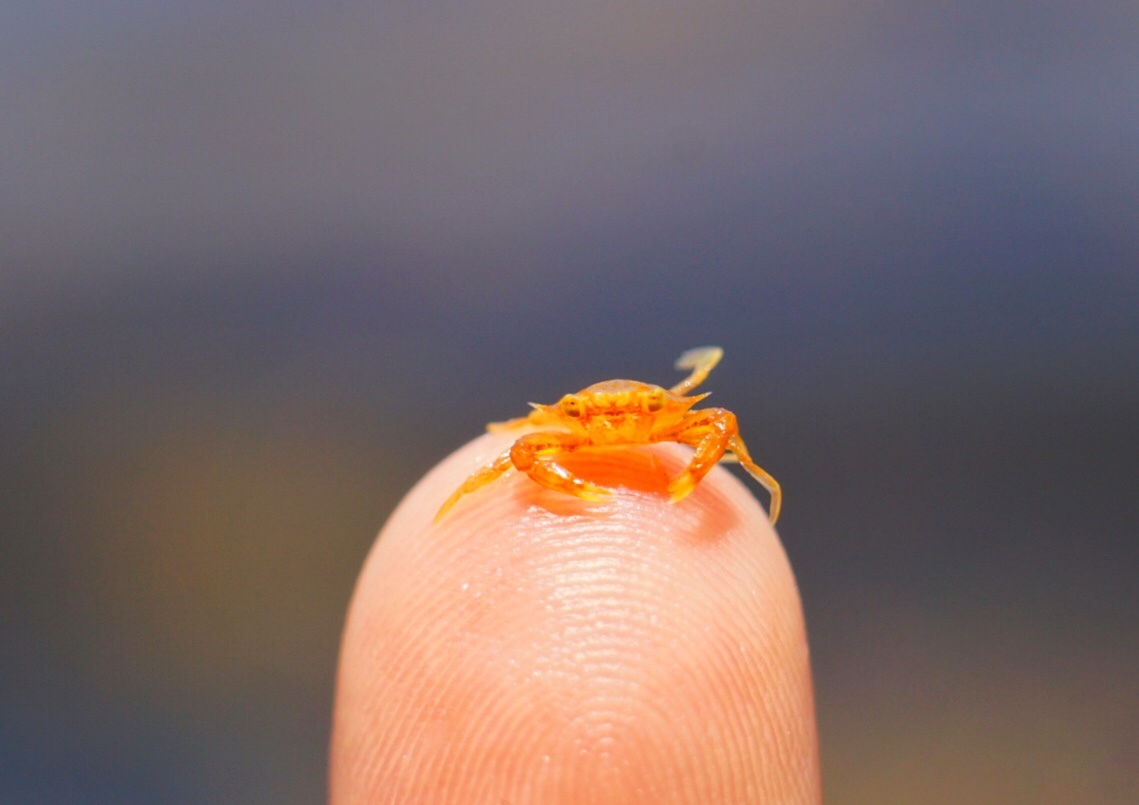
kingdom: Animalia
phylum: Arthropoda
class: Malacostraca
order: Decapoda
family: Portunidae
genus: Portunus
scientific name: Portunus sayi
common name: Sargassum crab
